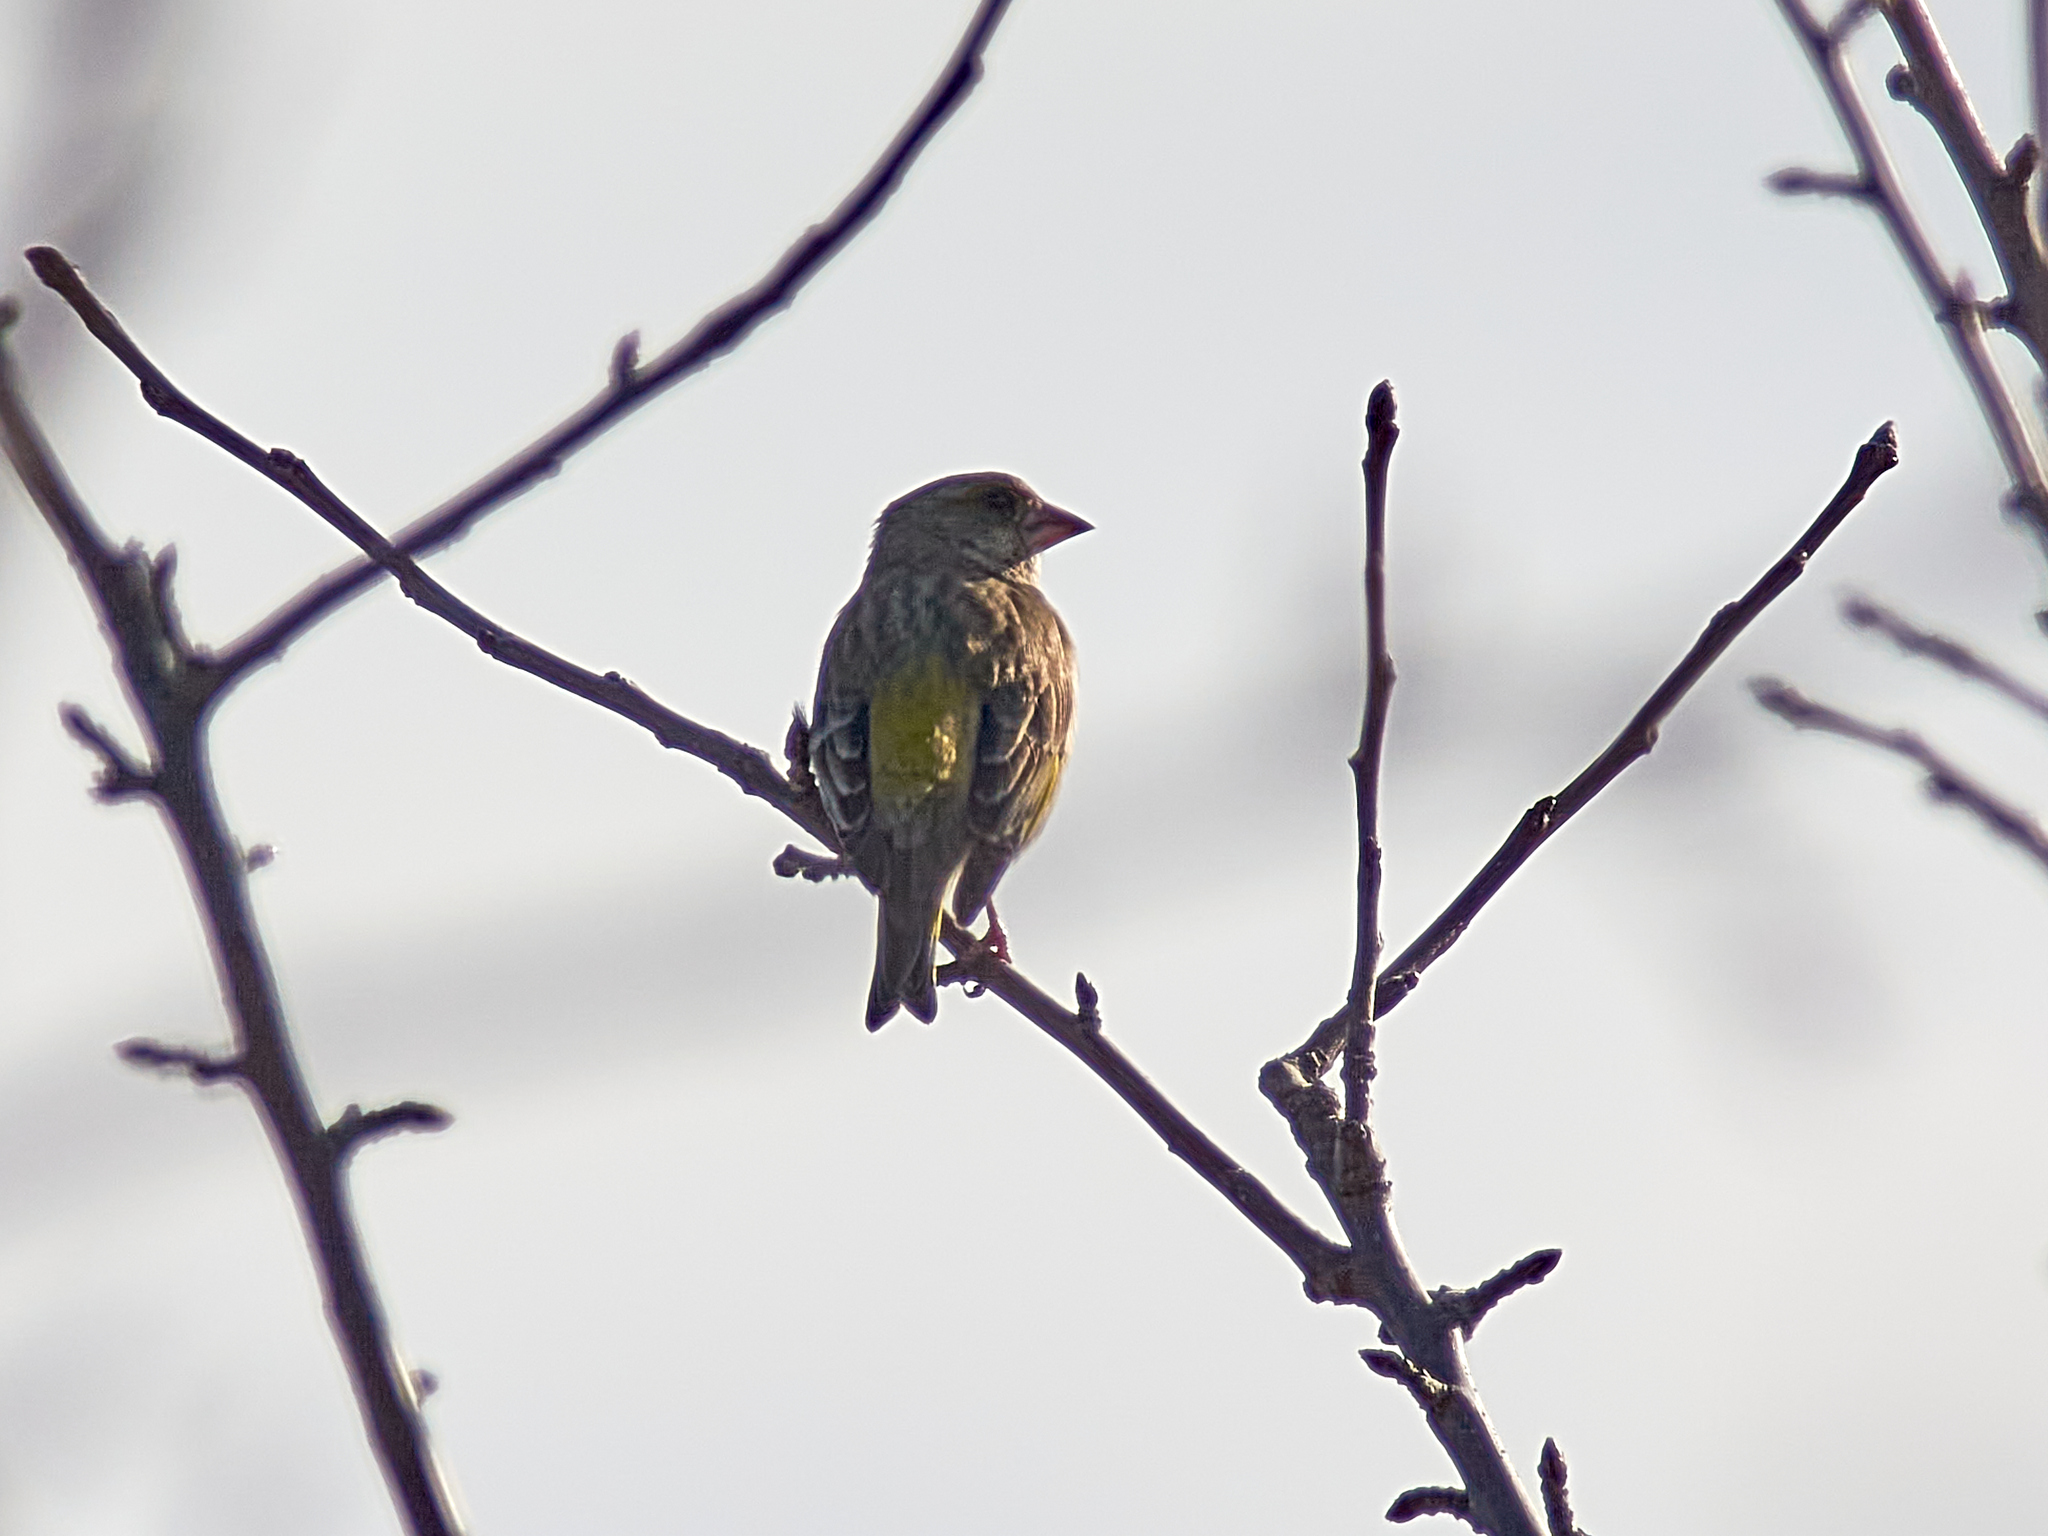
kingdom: Plantae
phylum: Tracheophyta
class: Liliopsida
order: Poales
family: Poaceae
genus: Chloris
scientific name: Chloris chloris
